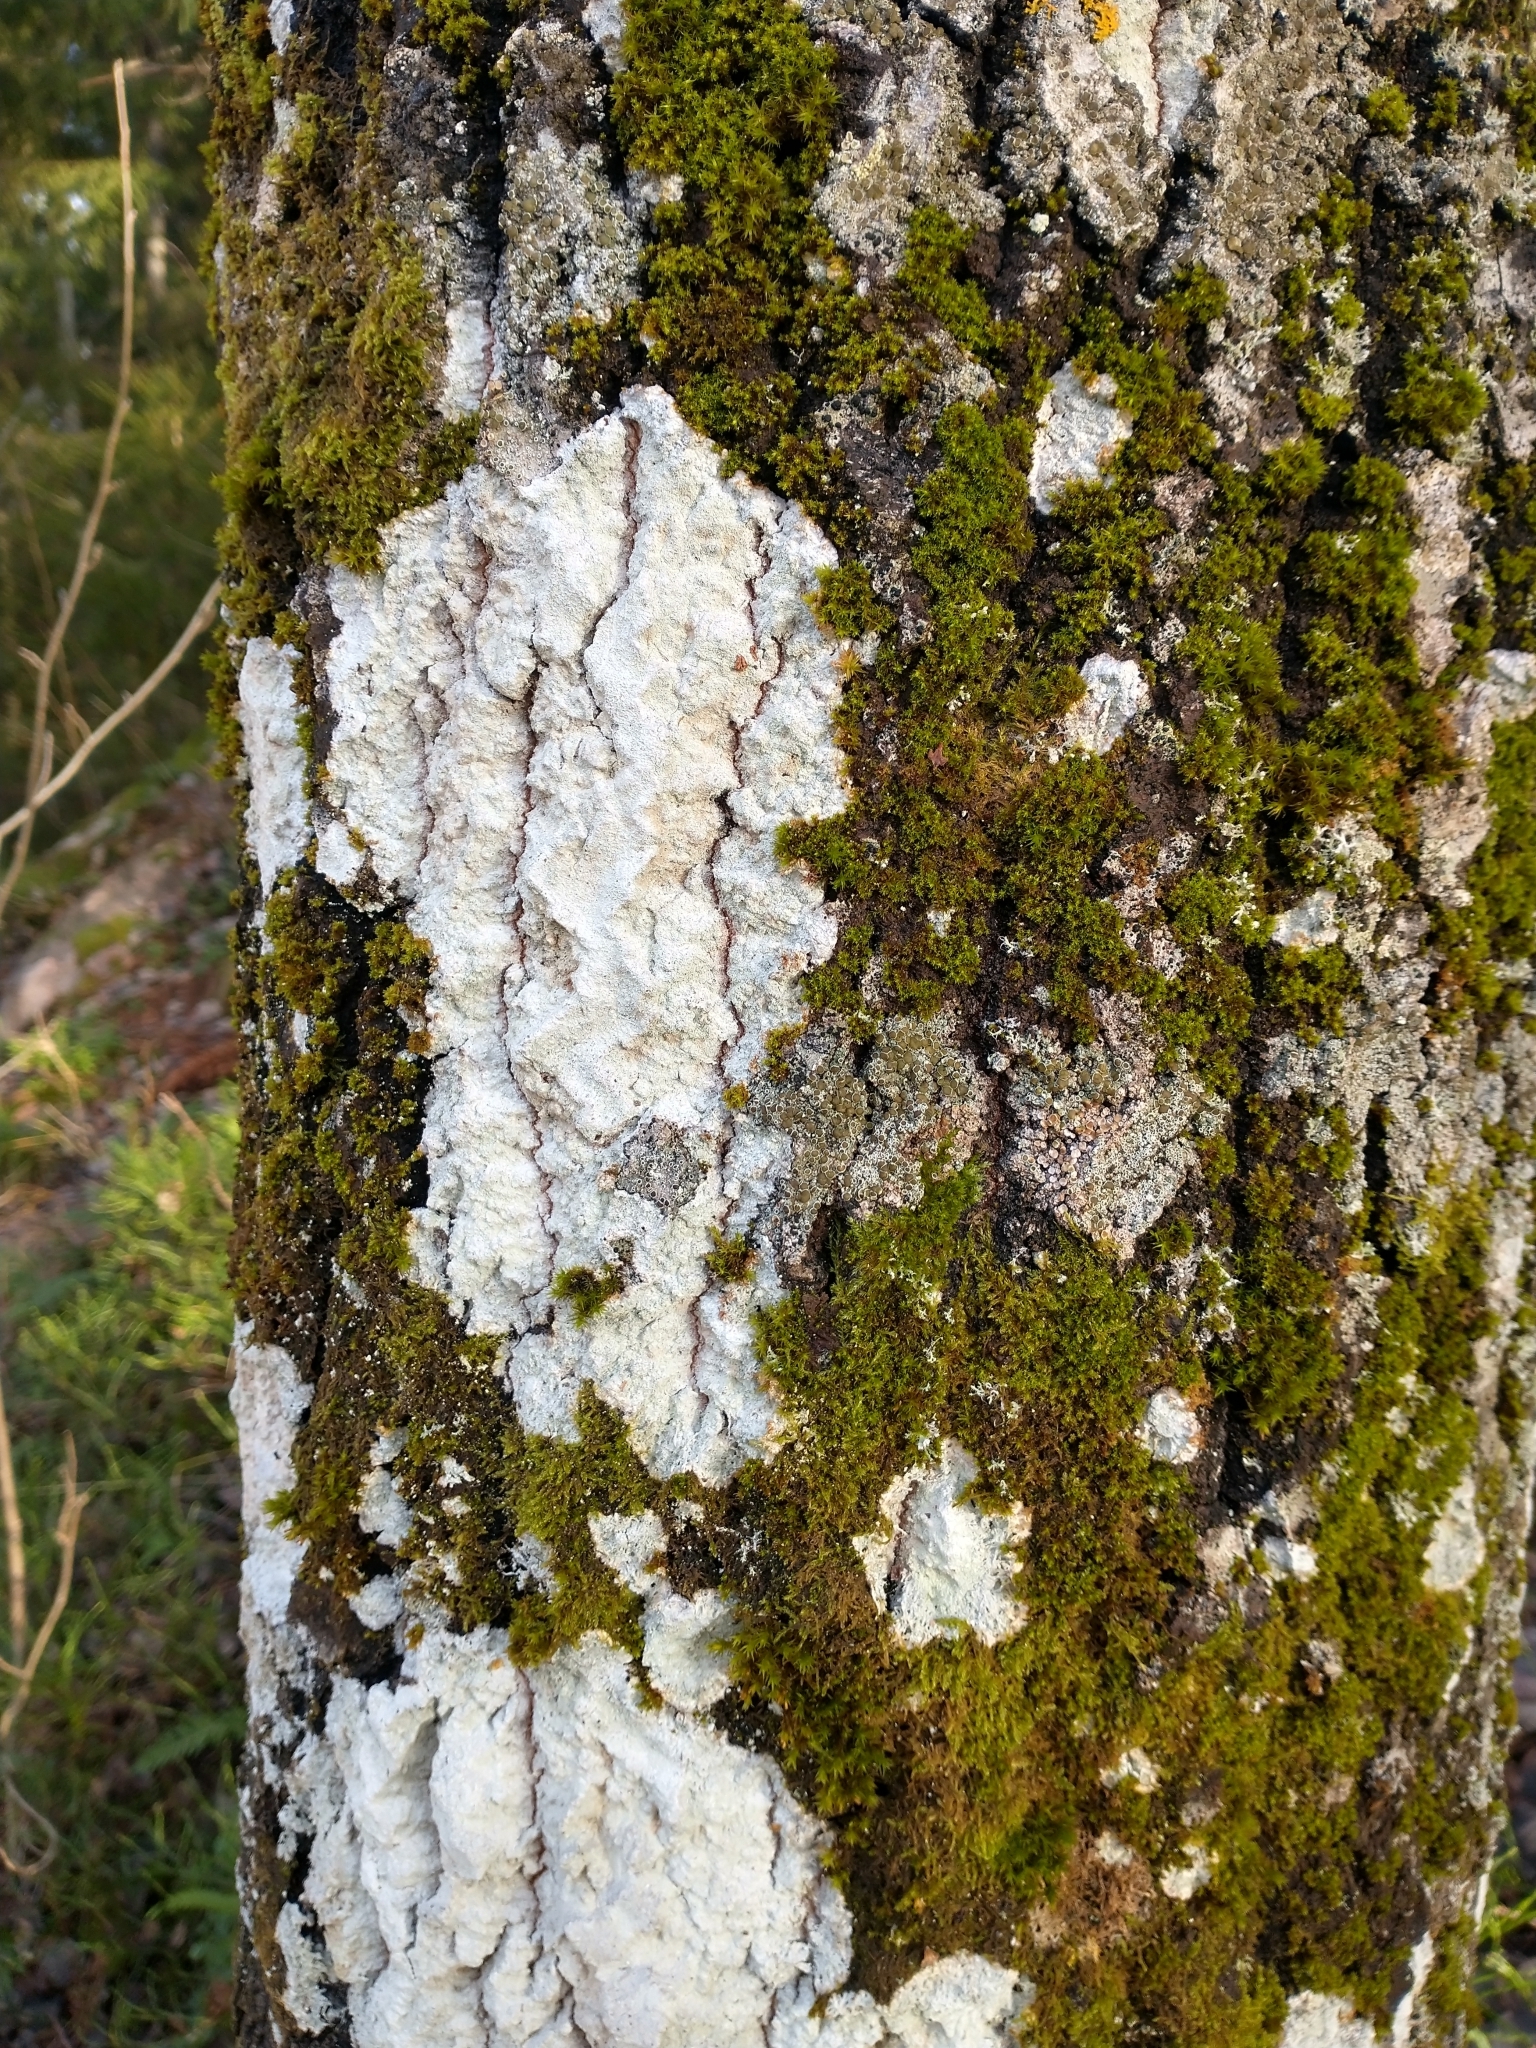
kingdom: Fungi
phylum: Ascomycota
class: Lecanoromycetes
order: Ostropales
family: Phlyctidaceae
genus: Phlyctis
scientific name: Phlyctis argena
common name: Whitewash lichen
